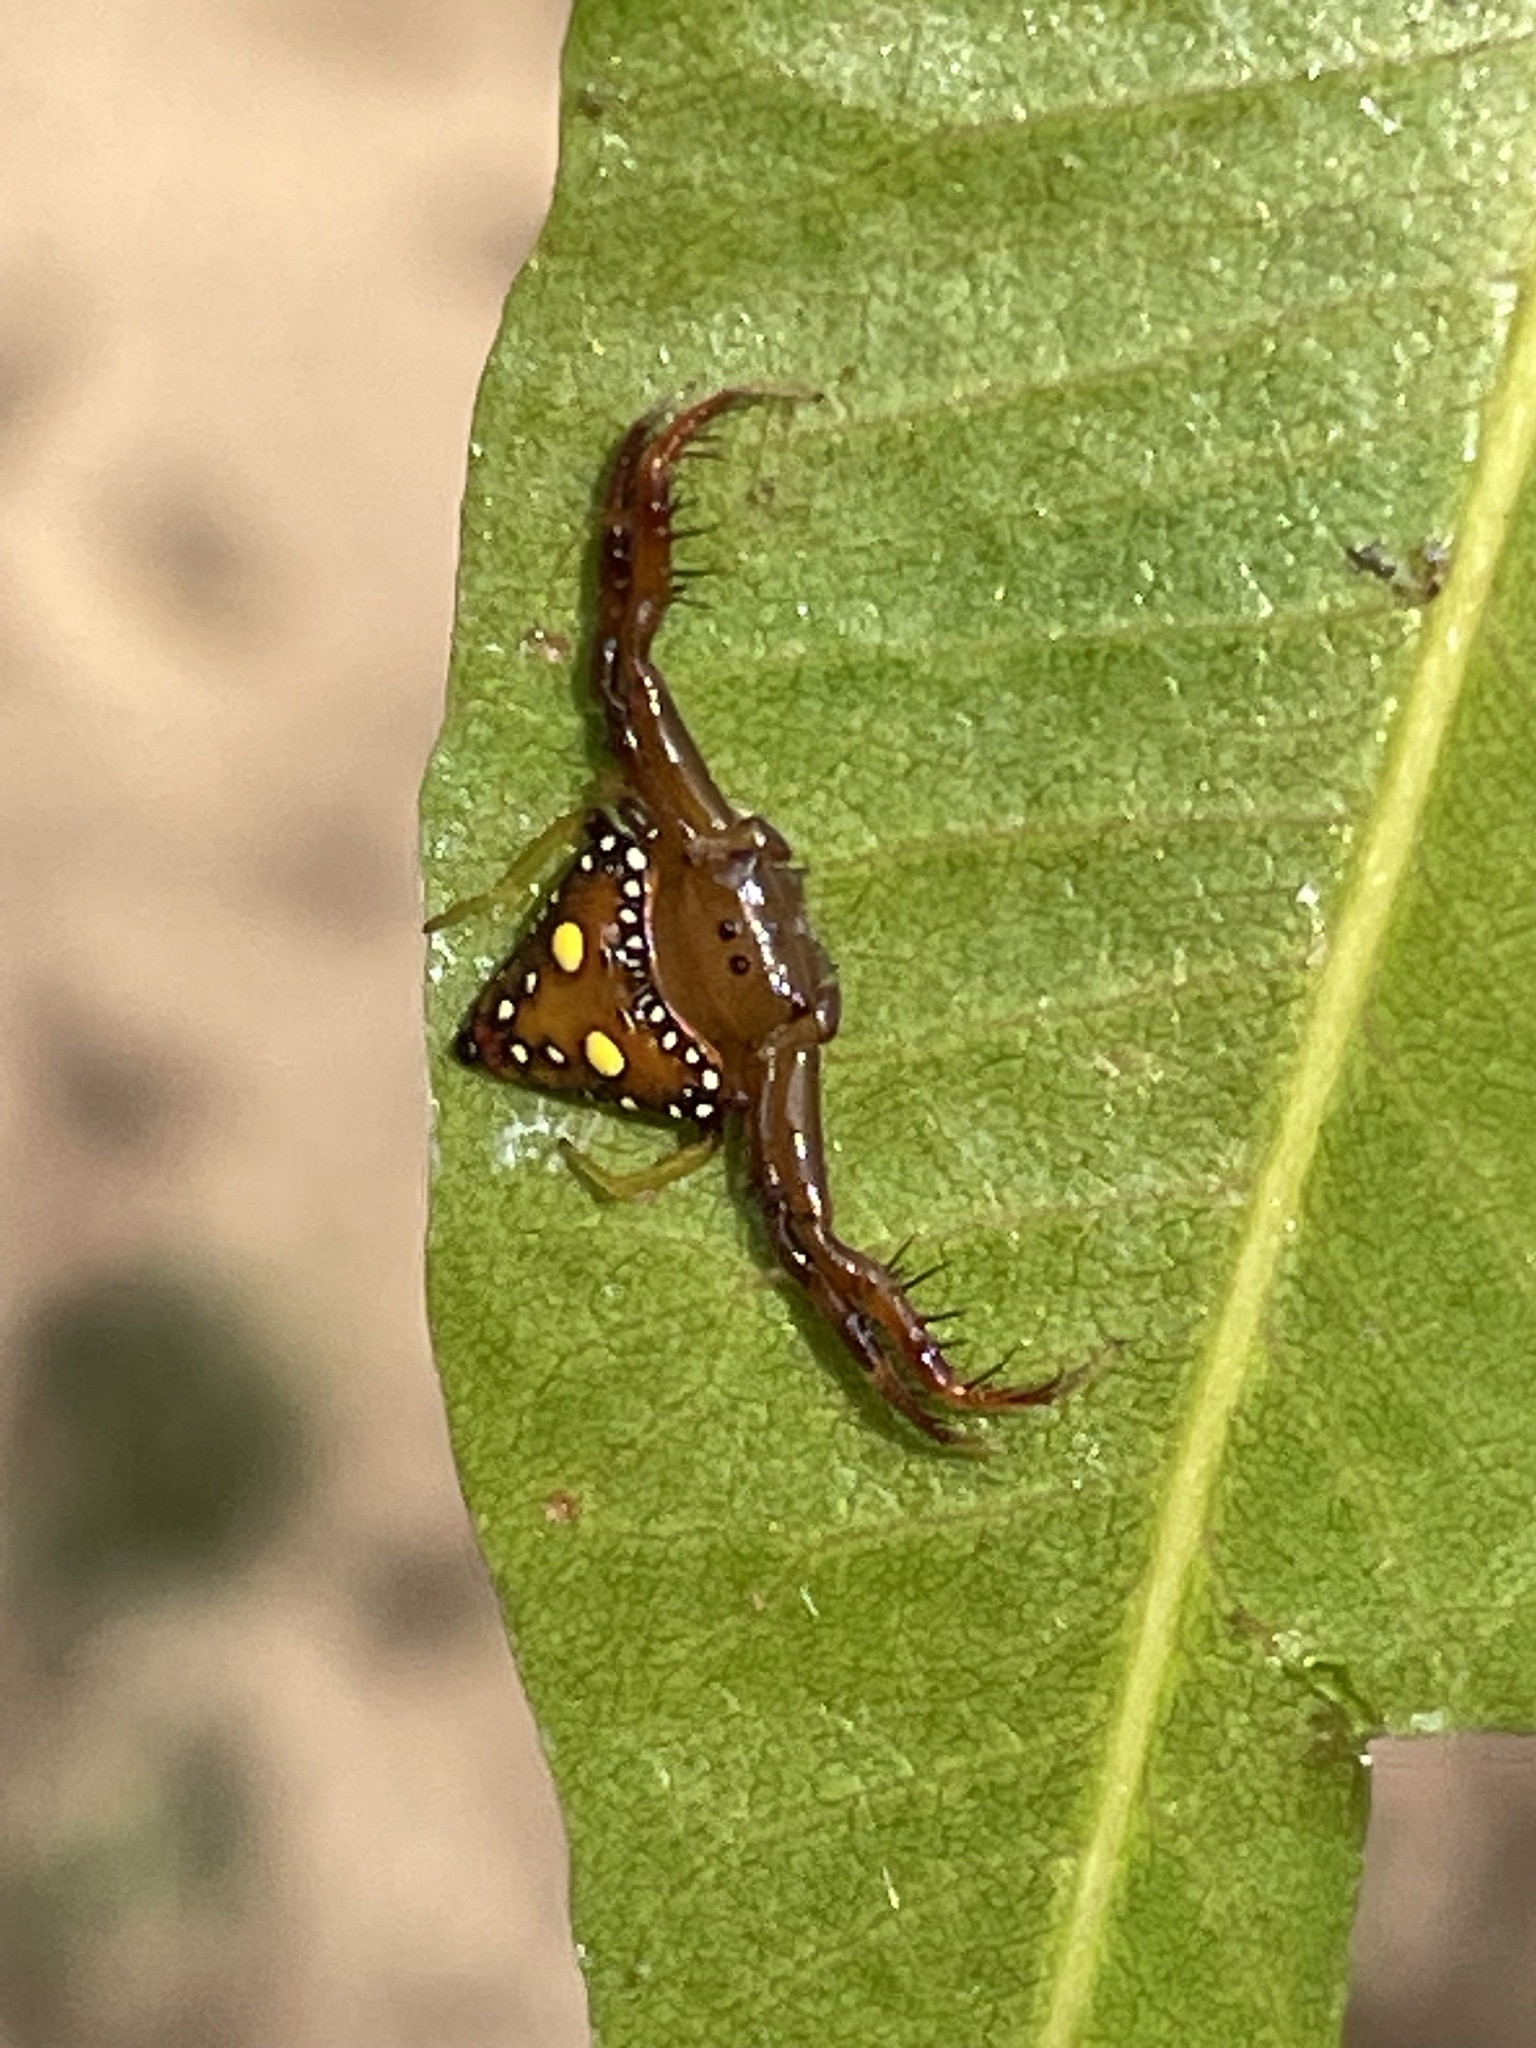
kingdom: Animalia
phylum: Arthropoda
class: Arachnida
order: Araneae
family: Arkyidae
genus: Arkys
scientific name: Arkys lancearius
